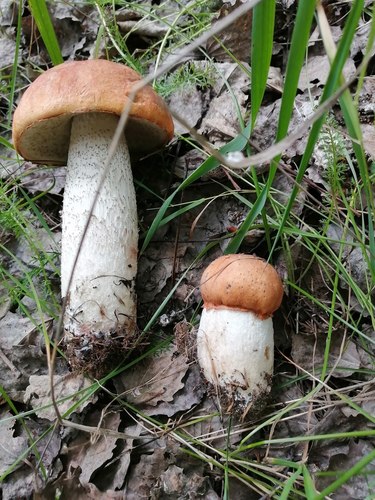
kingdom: Fungi
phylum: Basidiomycota
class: Agaricomycetes
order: Boletales
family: Boletaceae
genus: Leccinum
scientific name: Leccinum albostipitatum
